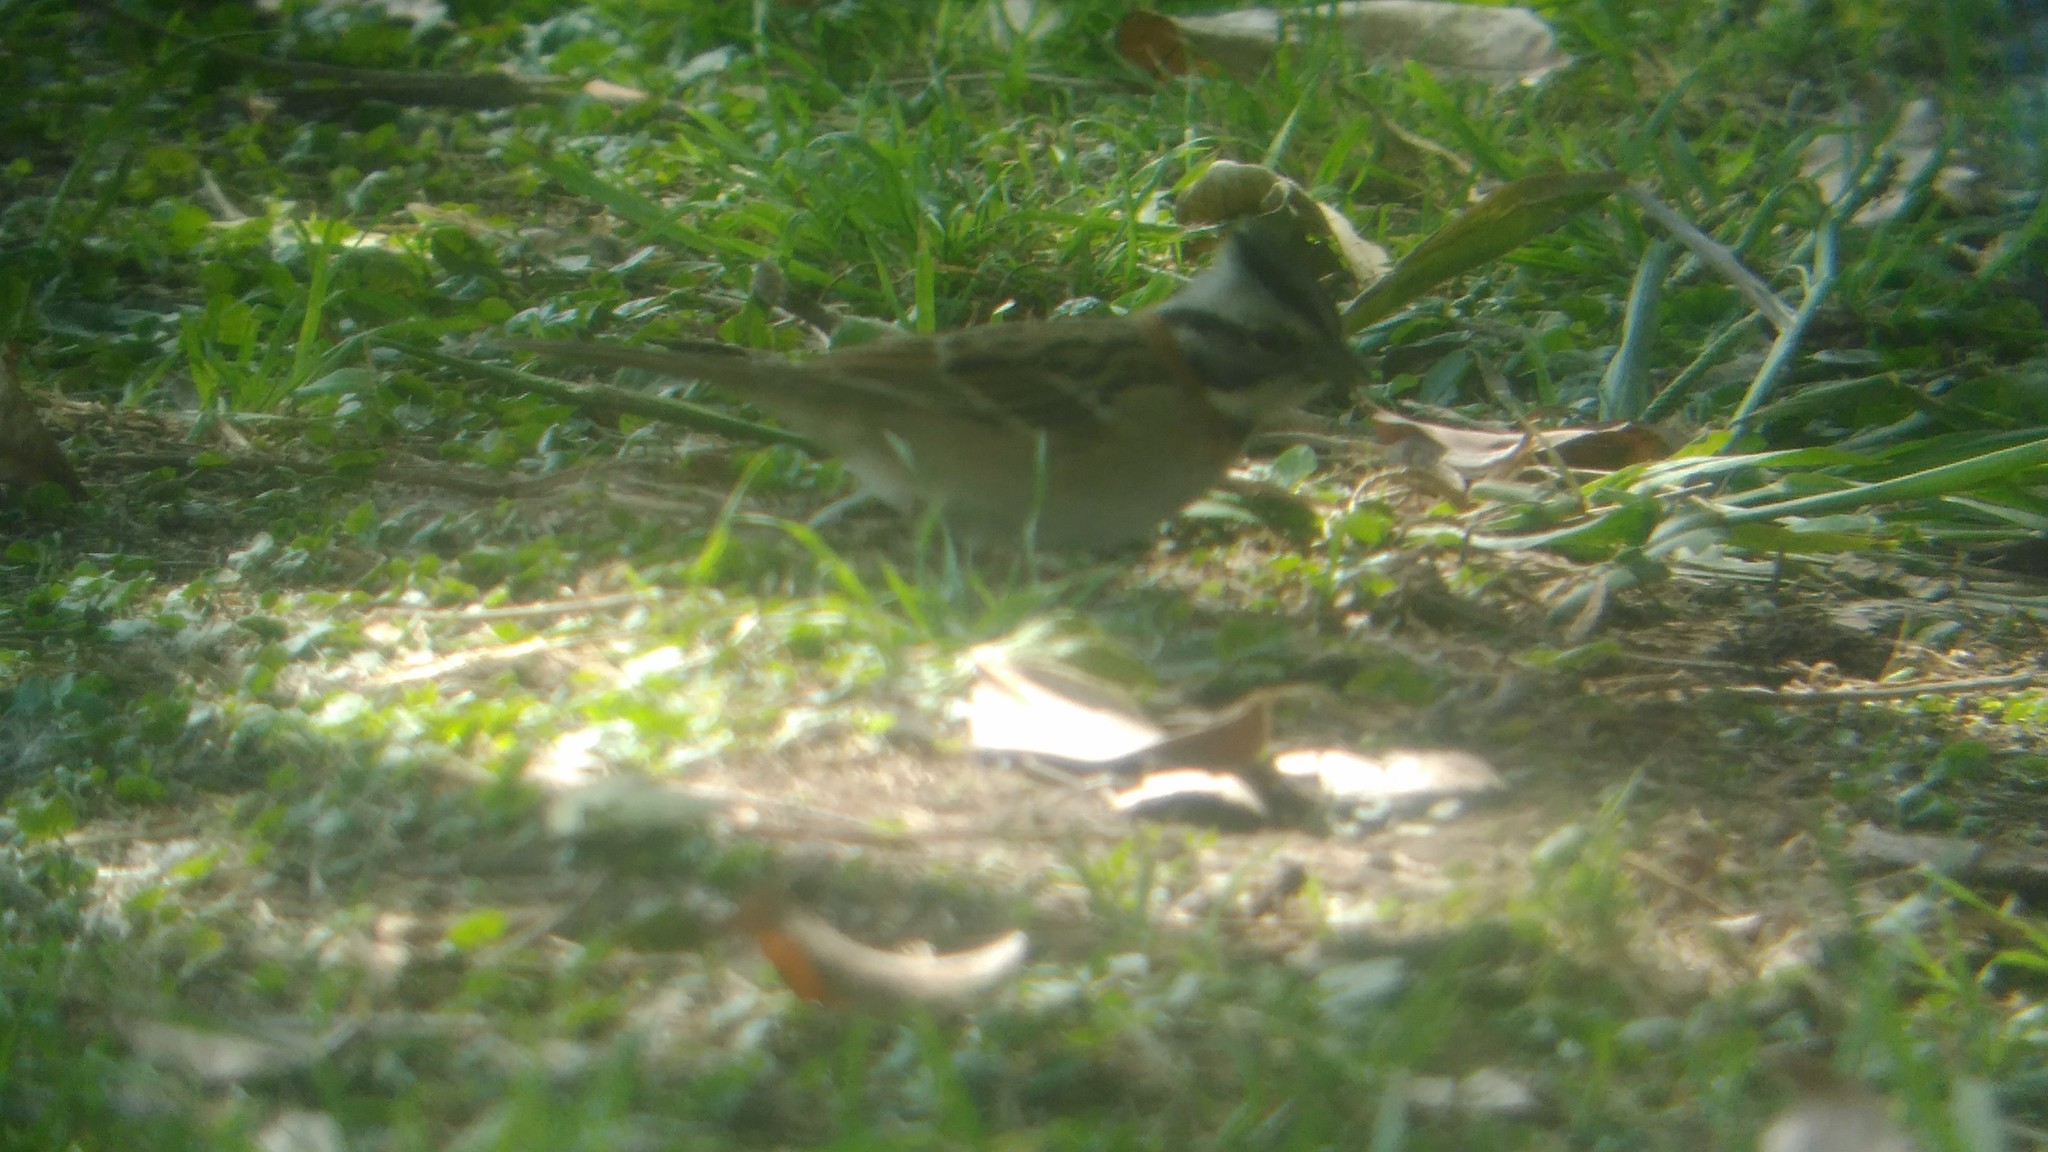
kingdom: Animalia
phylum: Chordata
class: Aves
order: Passeriformes
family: Passerellidae
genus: Zonotrichia
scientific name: Zonotrichia capensis
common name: Rufous-collared sparrow
